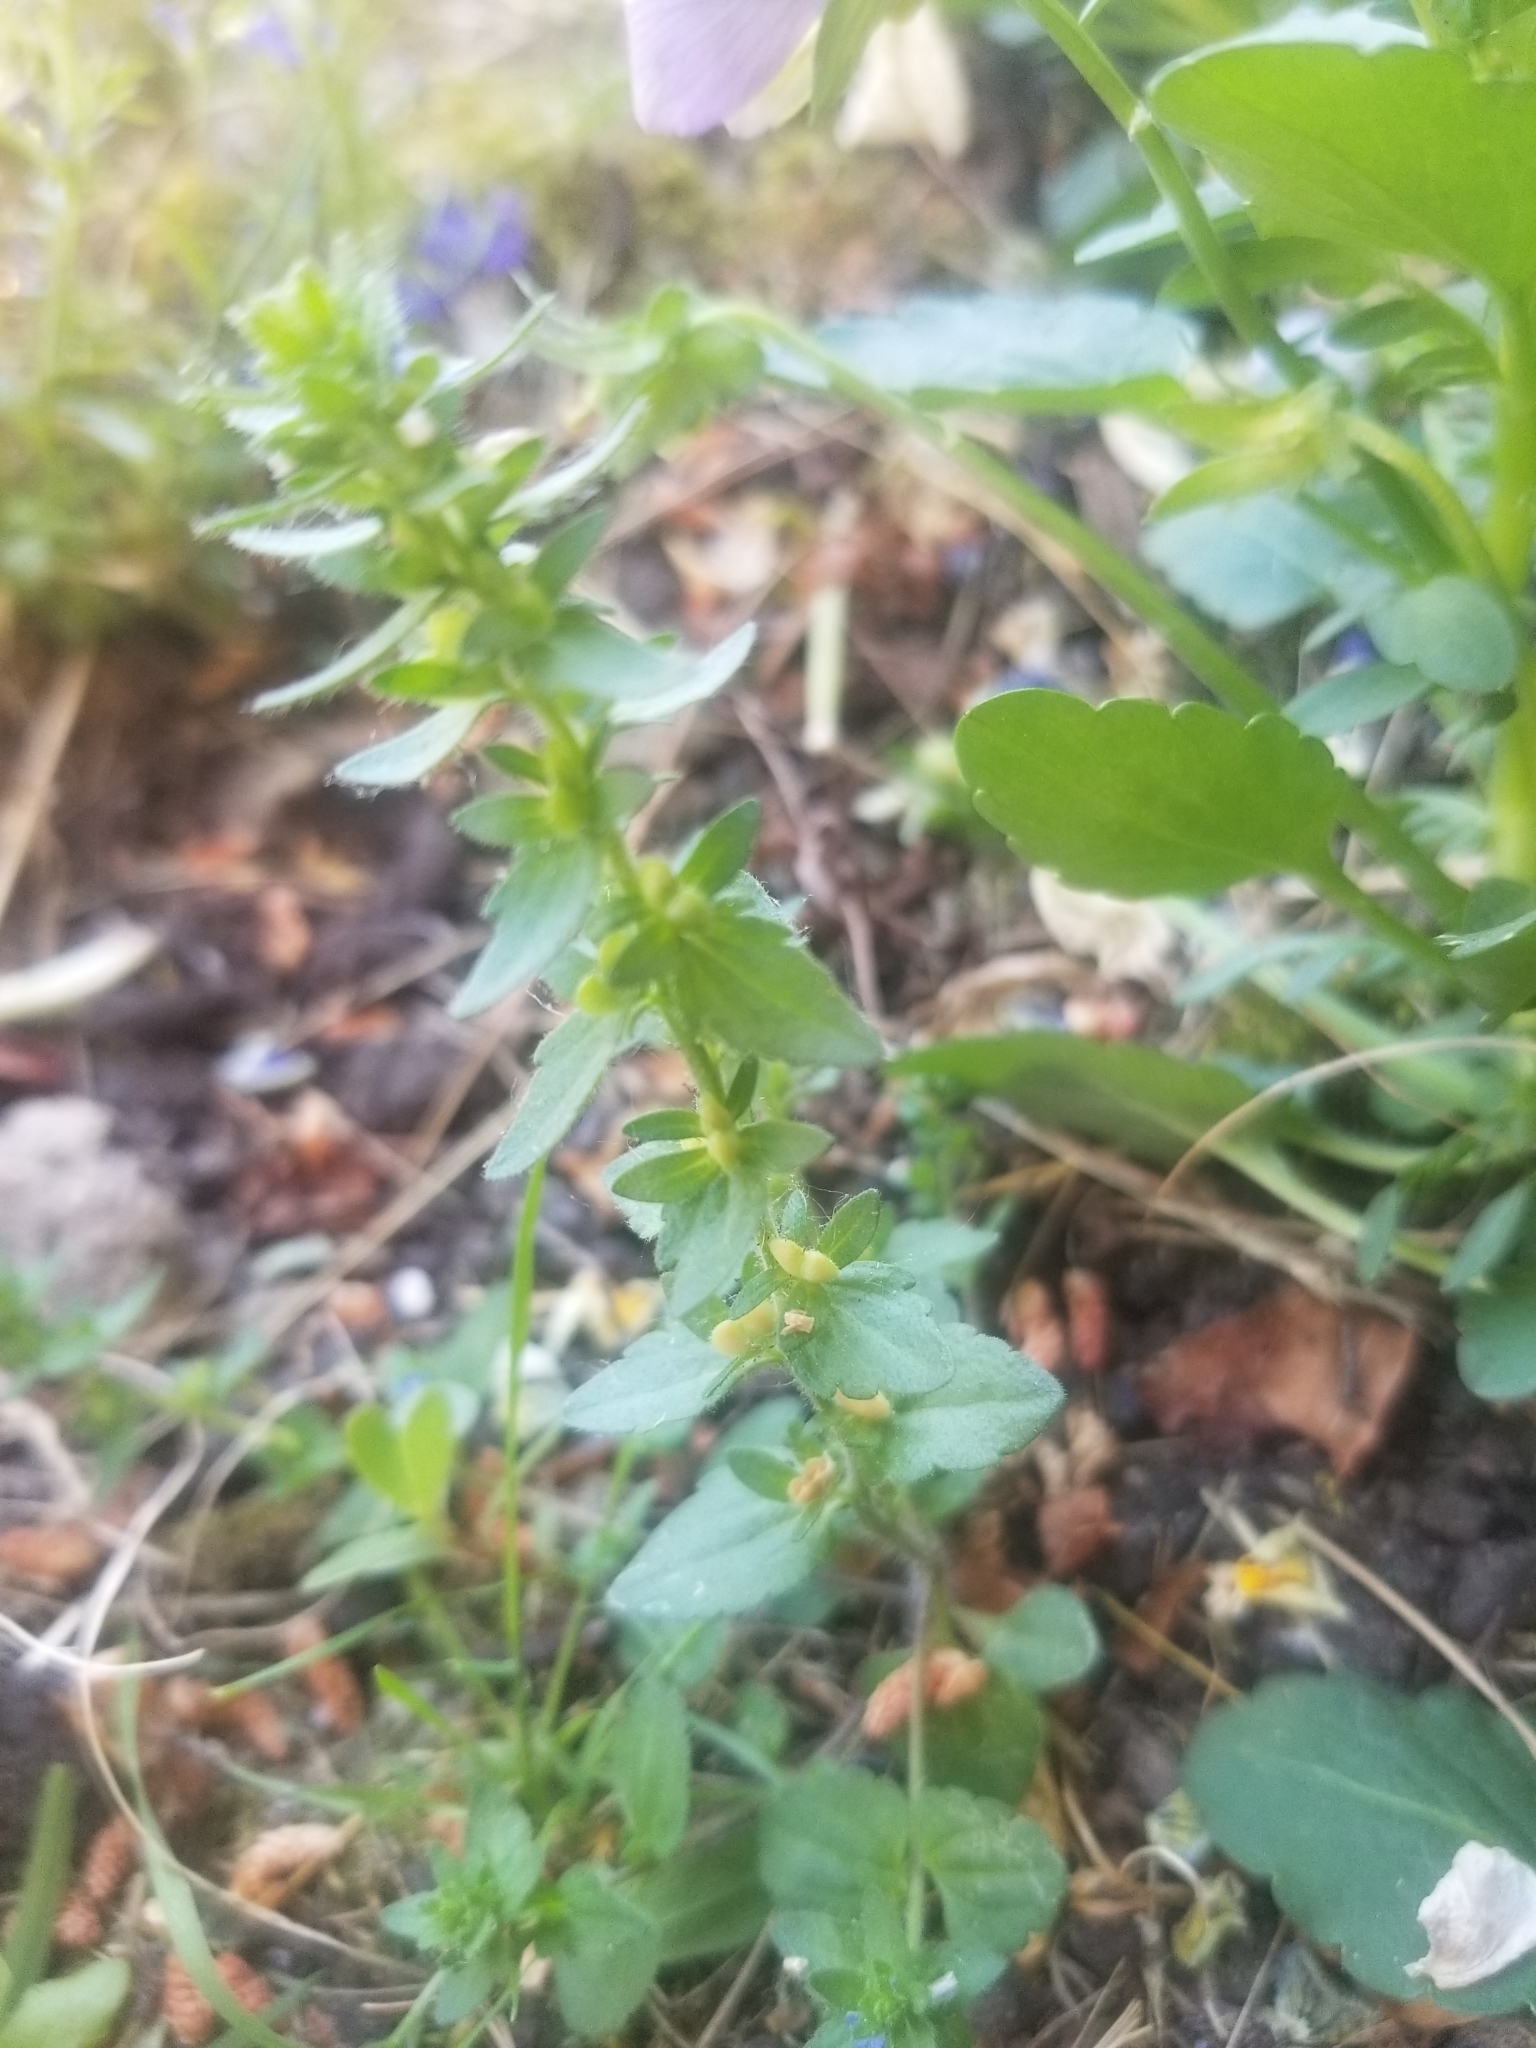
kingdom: Plantae
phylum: Tracheophyta
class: Magnoliopsida
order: Lamiales
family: Plantaginaceae
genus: Veronica
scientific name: Veronica arvensis
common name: Corn speedwell
